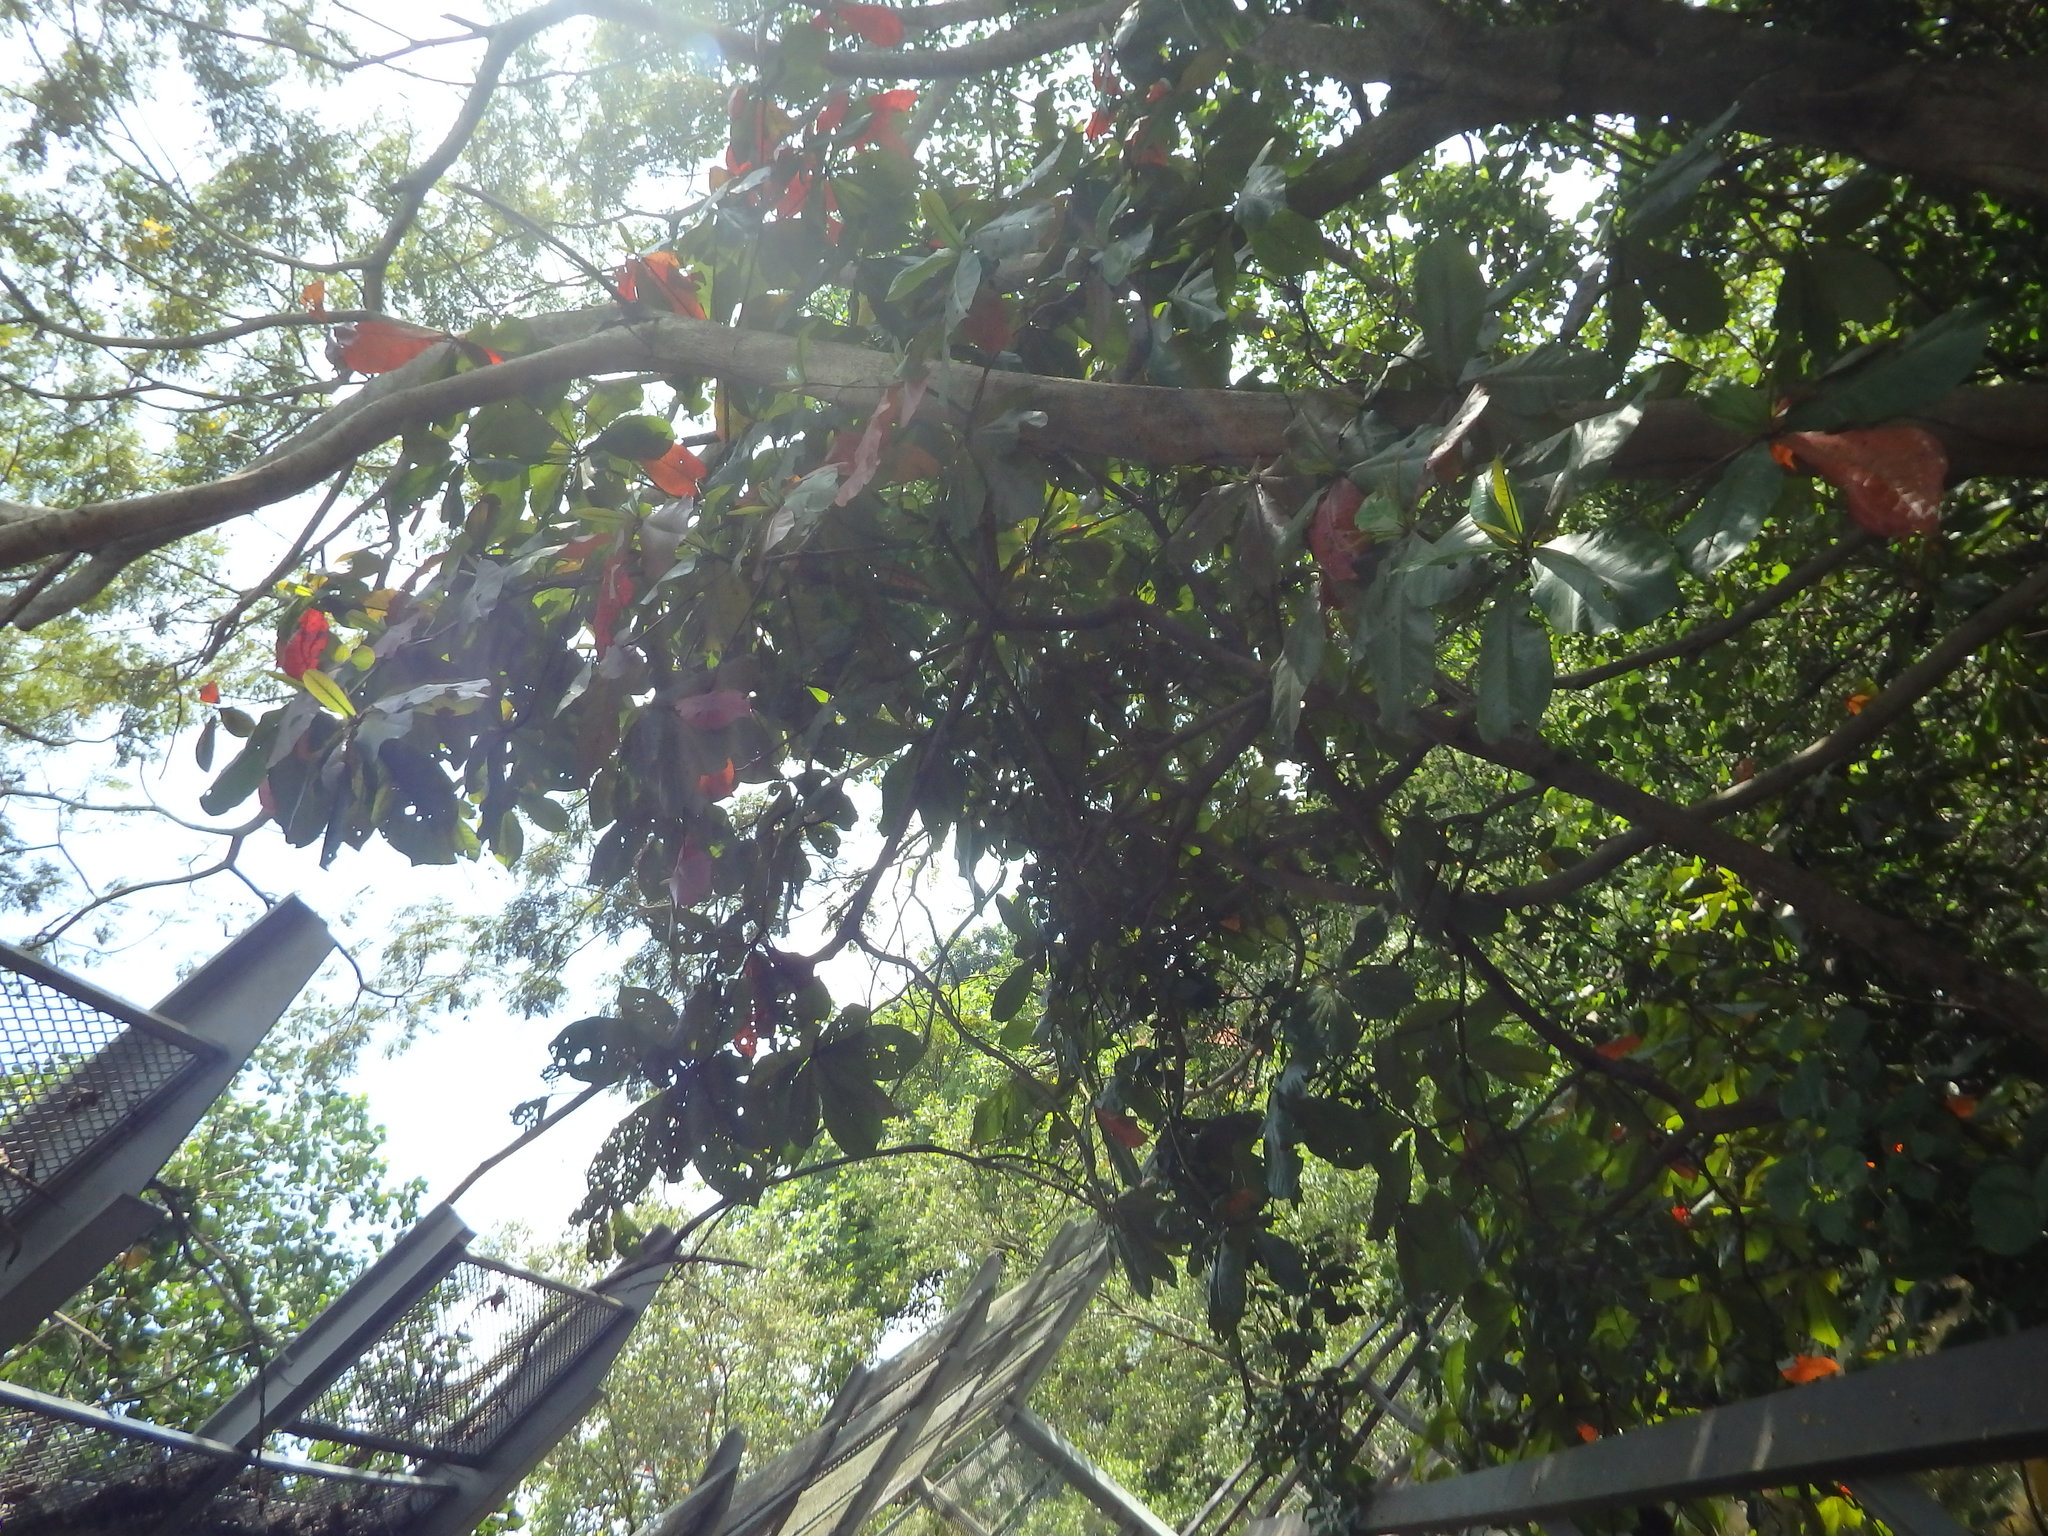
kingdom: Plantae
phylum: Tracheophyta
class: Magnoliopsida
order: Myrtales
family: Combretaceae
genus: Terminalia
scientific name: Terminalia catappa
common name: Tropical almond
